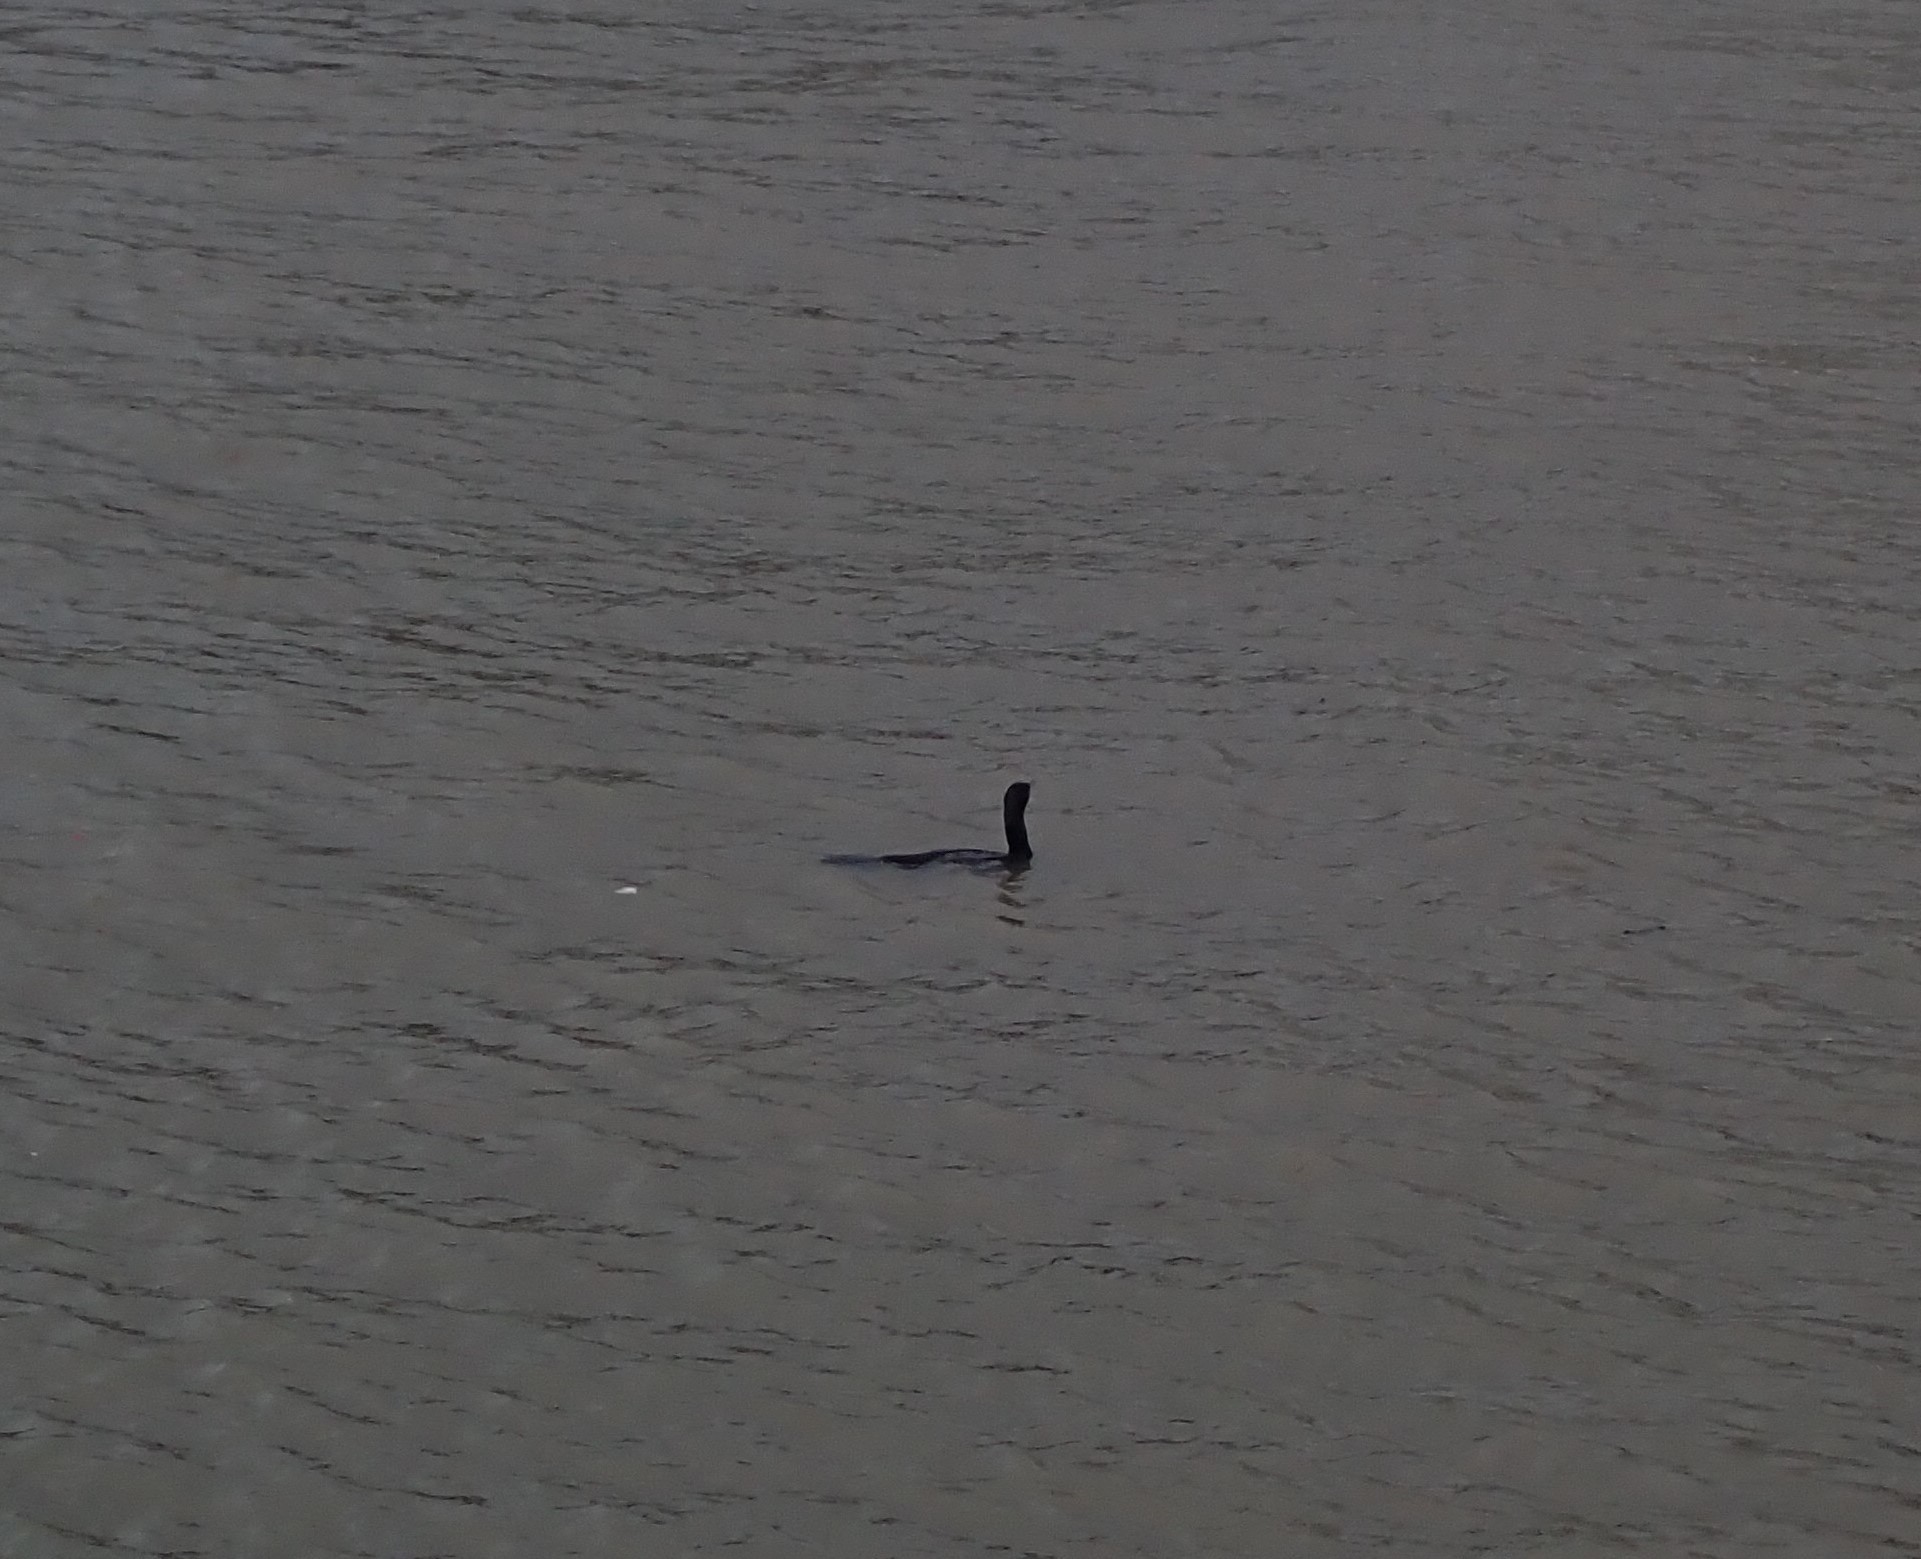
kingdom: Animalia
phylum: Chordata
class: Aves
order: Suliformes
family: Phalacrocoracidae
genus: Phalacrocorax
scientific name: Phalacrocorax carbo
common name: Great cormorant
